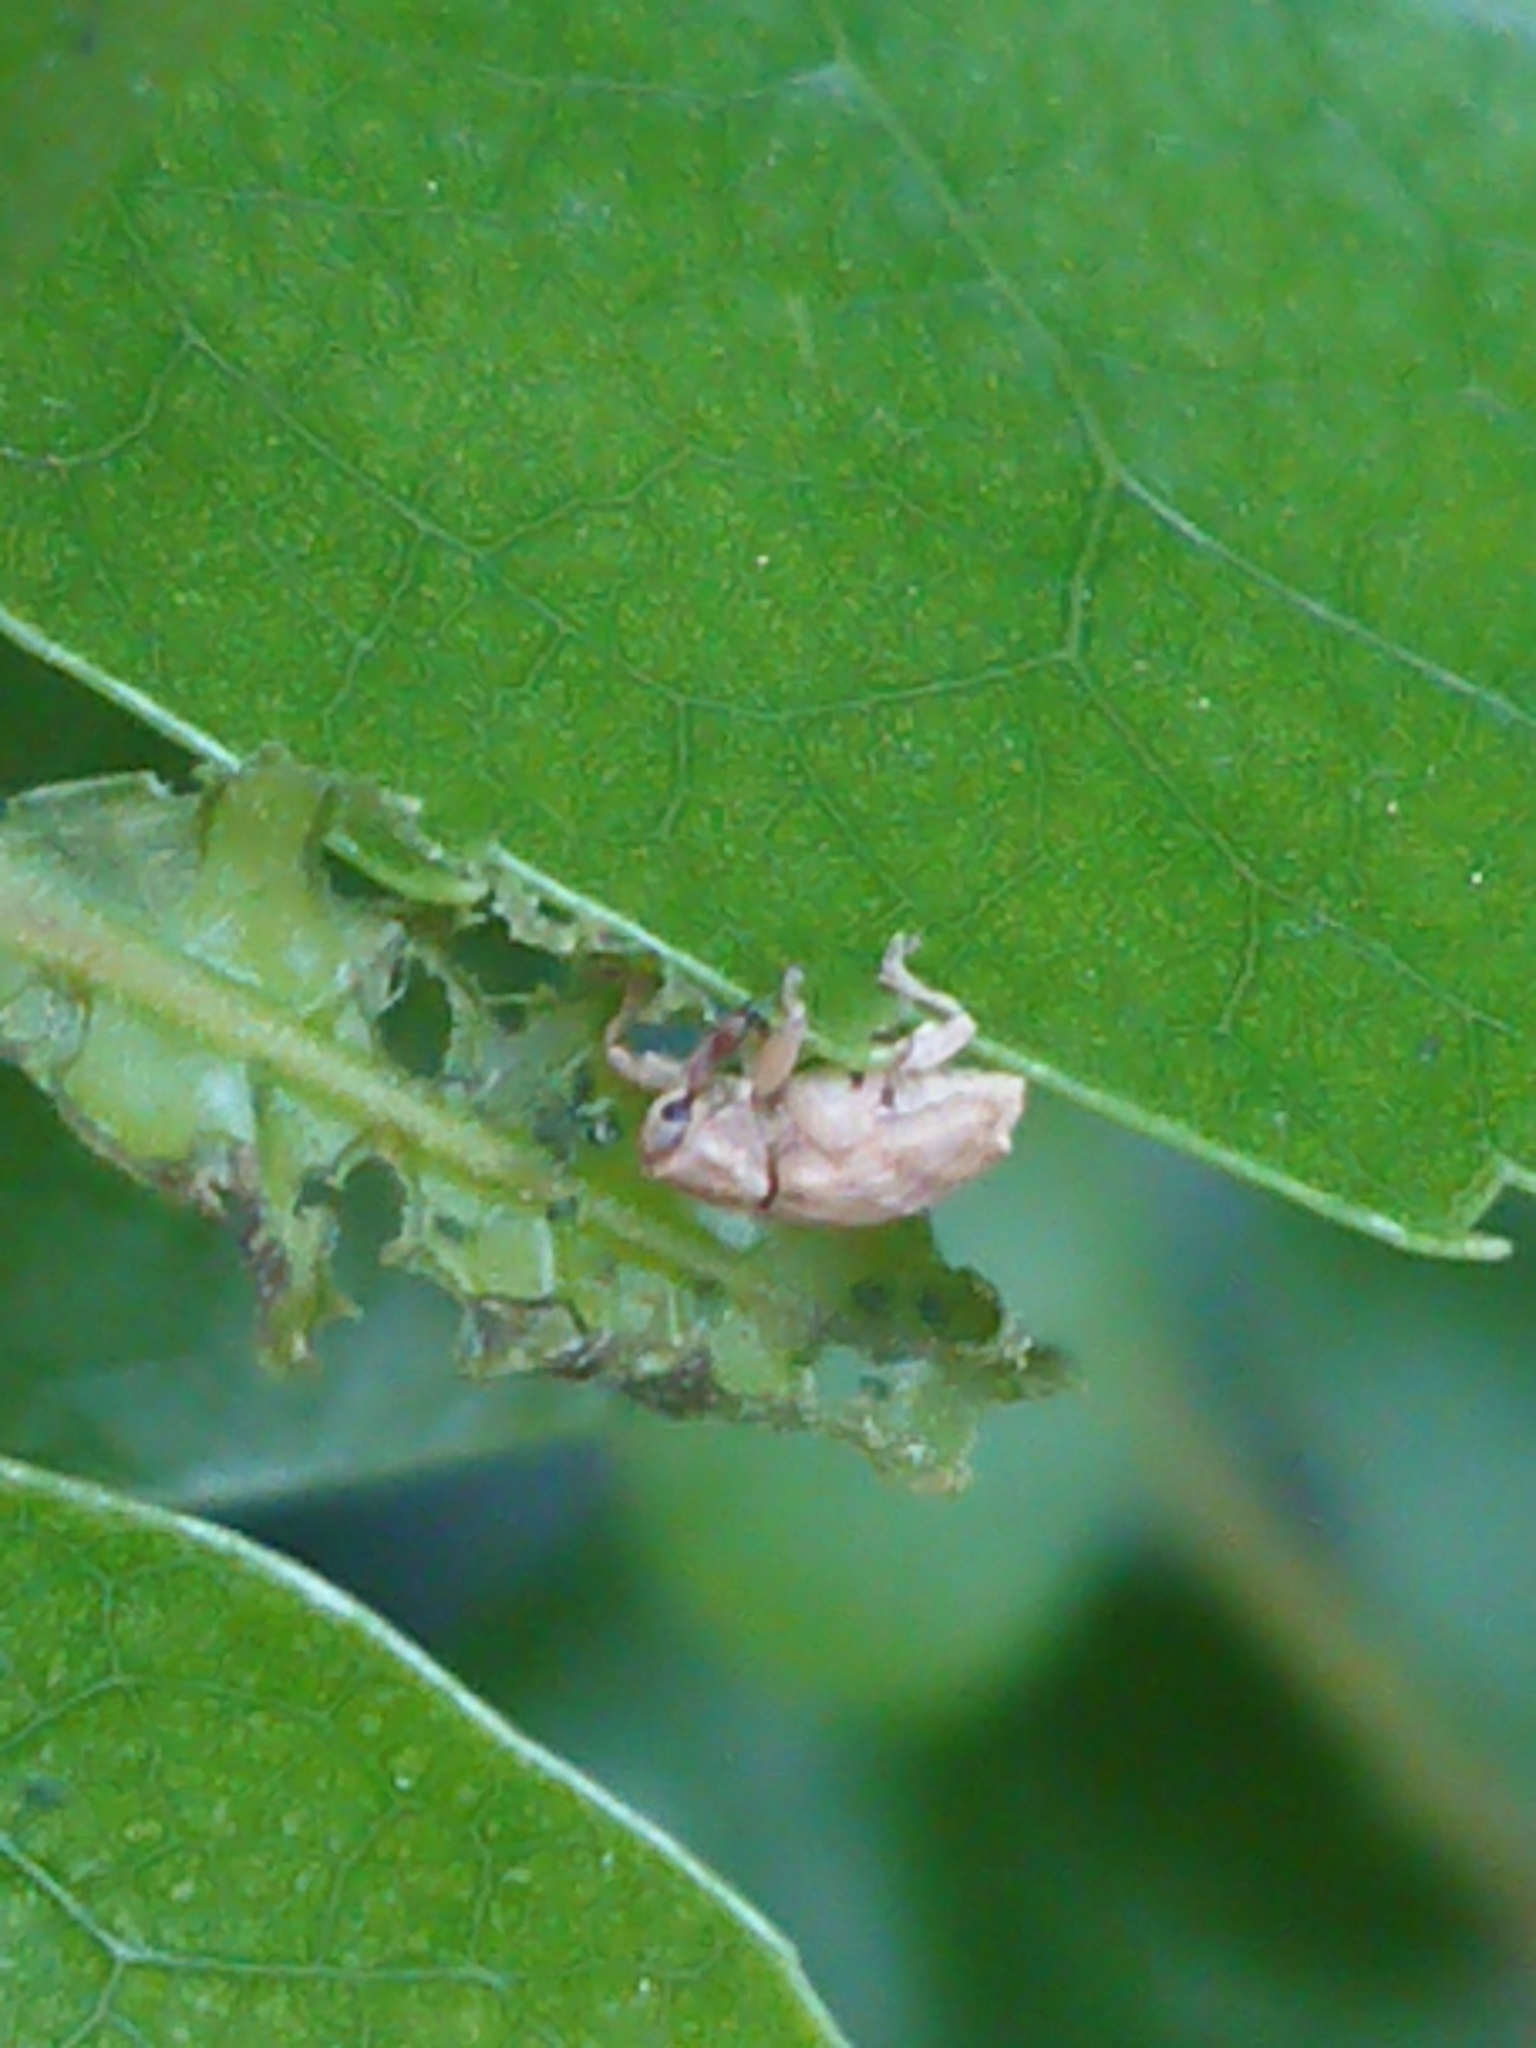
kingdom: Animalia
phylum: Arthropoda
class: Insecta
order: Coleoptera
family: Curculionidae
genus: Aneuma
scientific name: Aneuma compta
